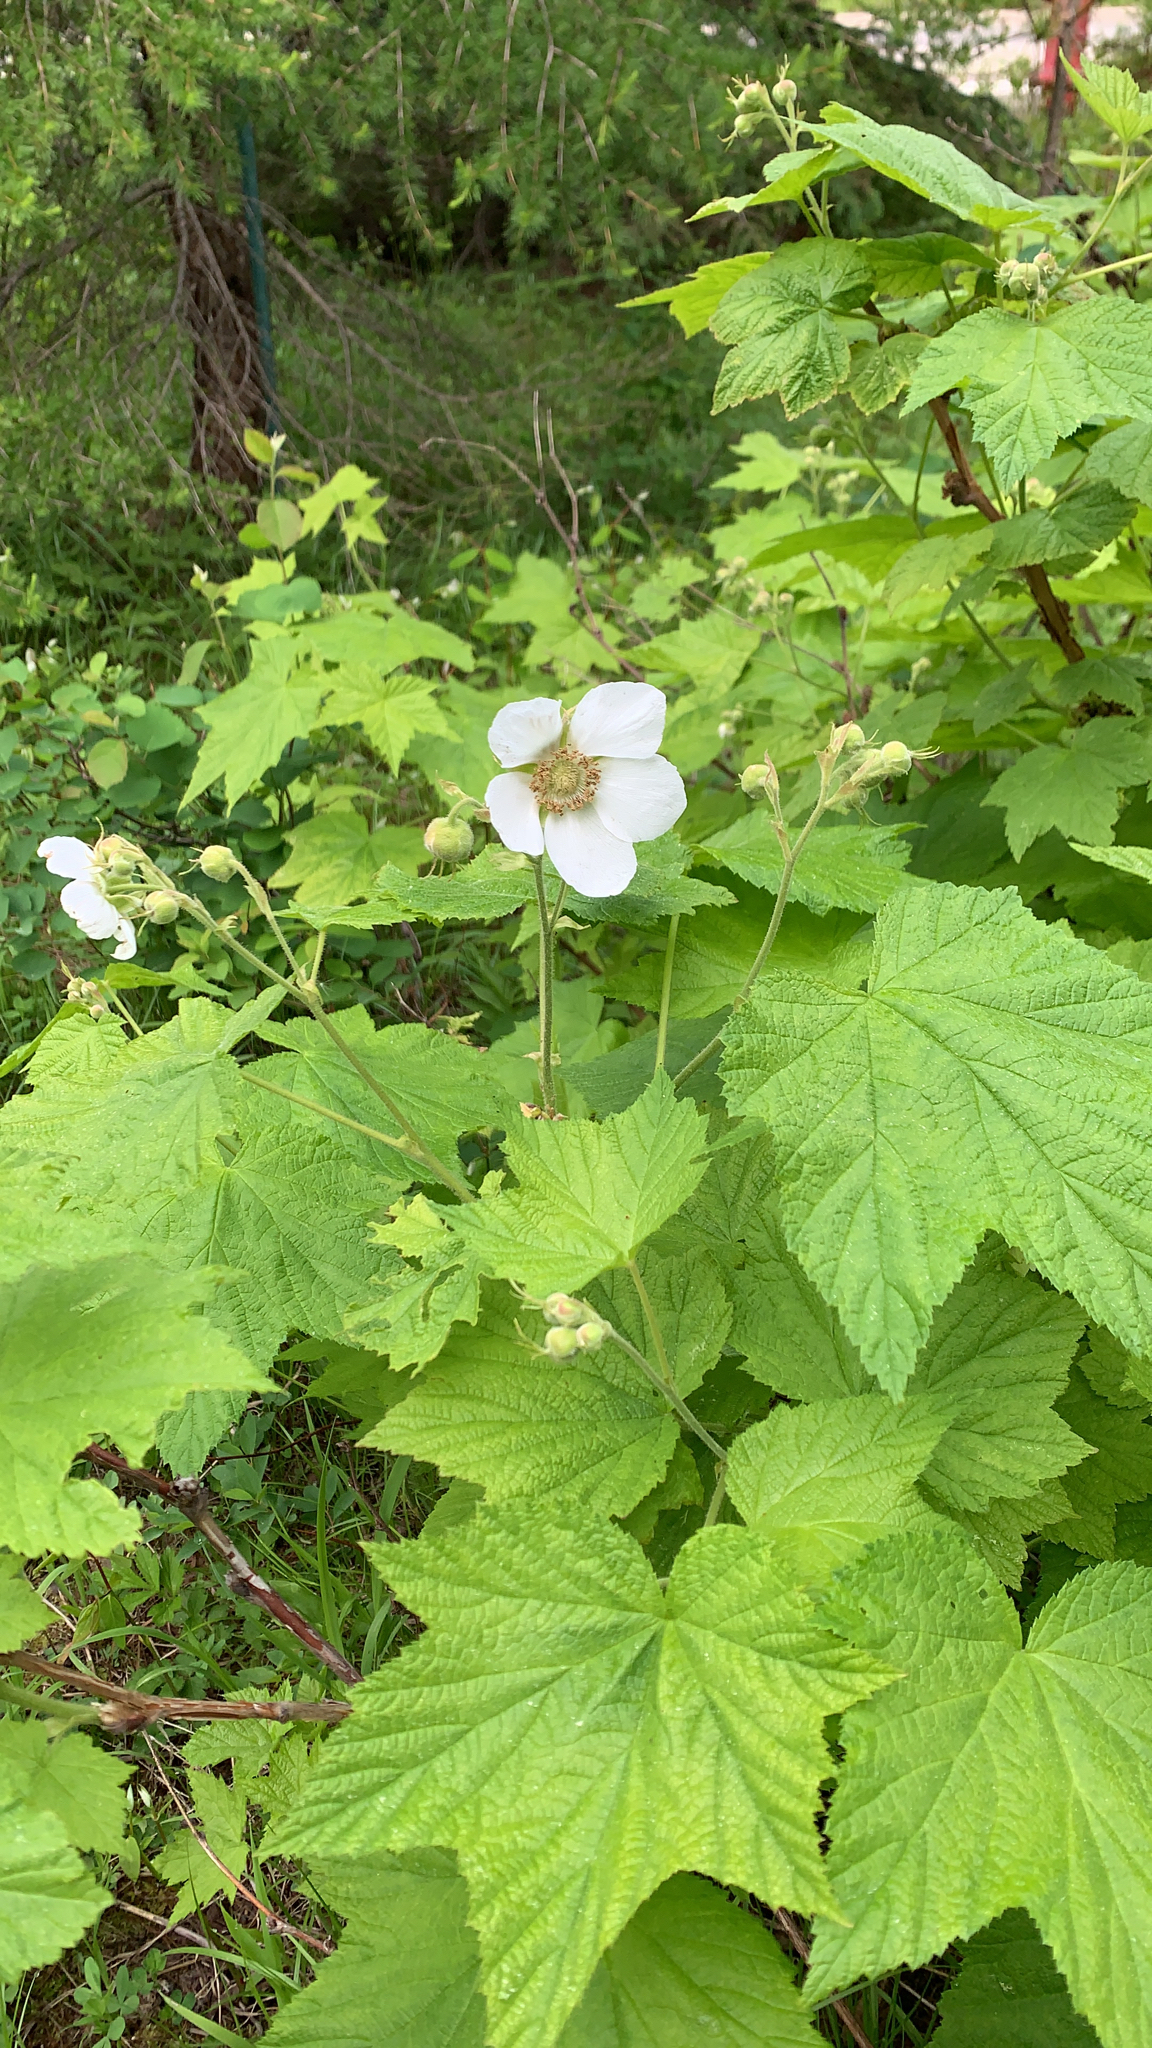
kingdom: Plantae
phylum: Tracheophyta
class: Magnoliopsida
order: Rosales
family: Rosaceae
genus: Rubus
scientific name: Rubus parviflorus
